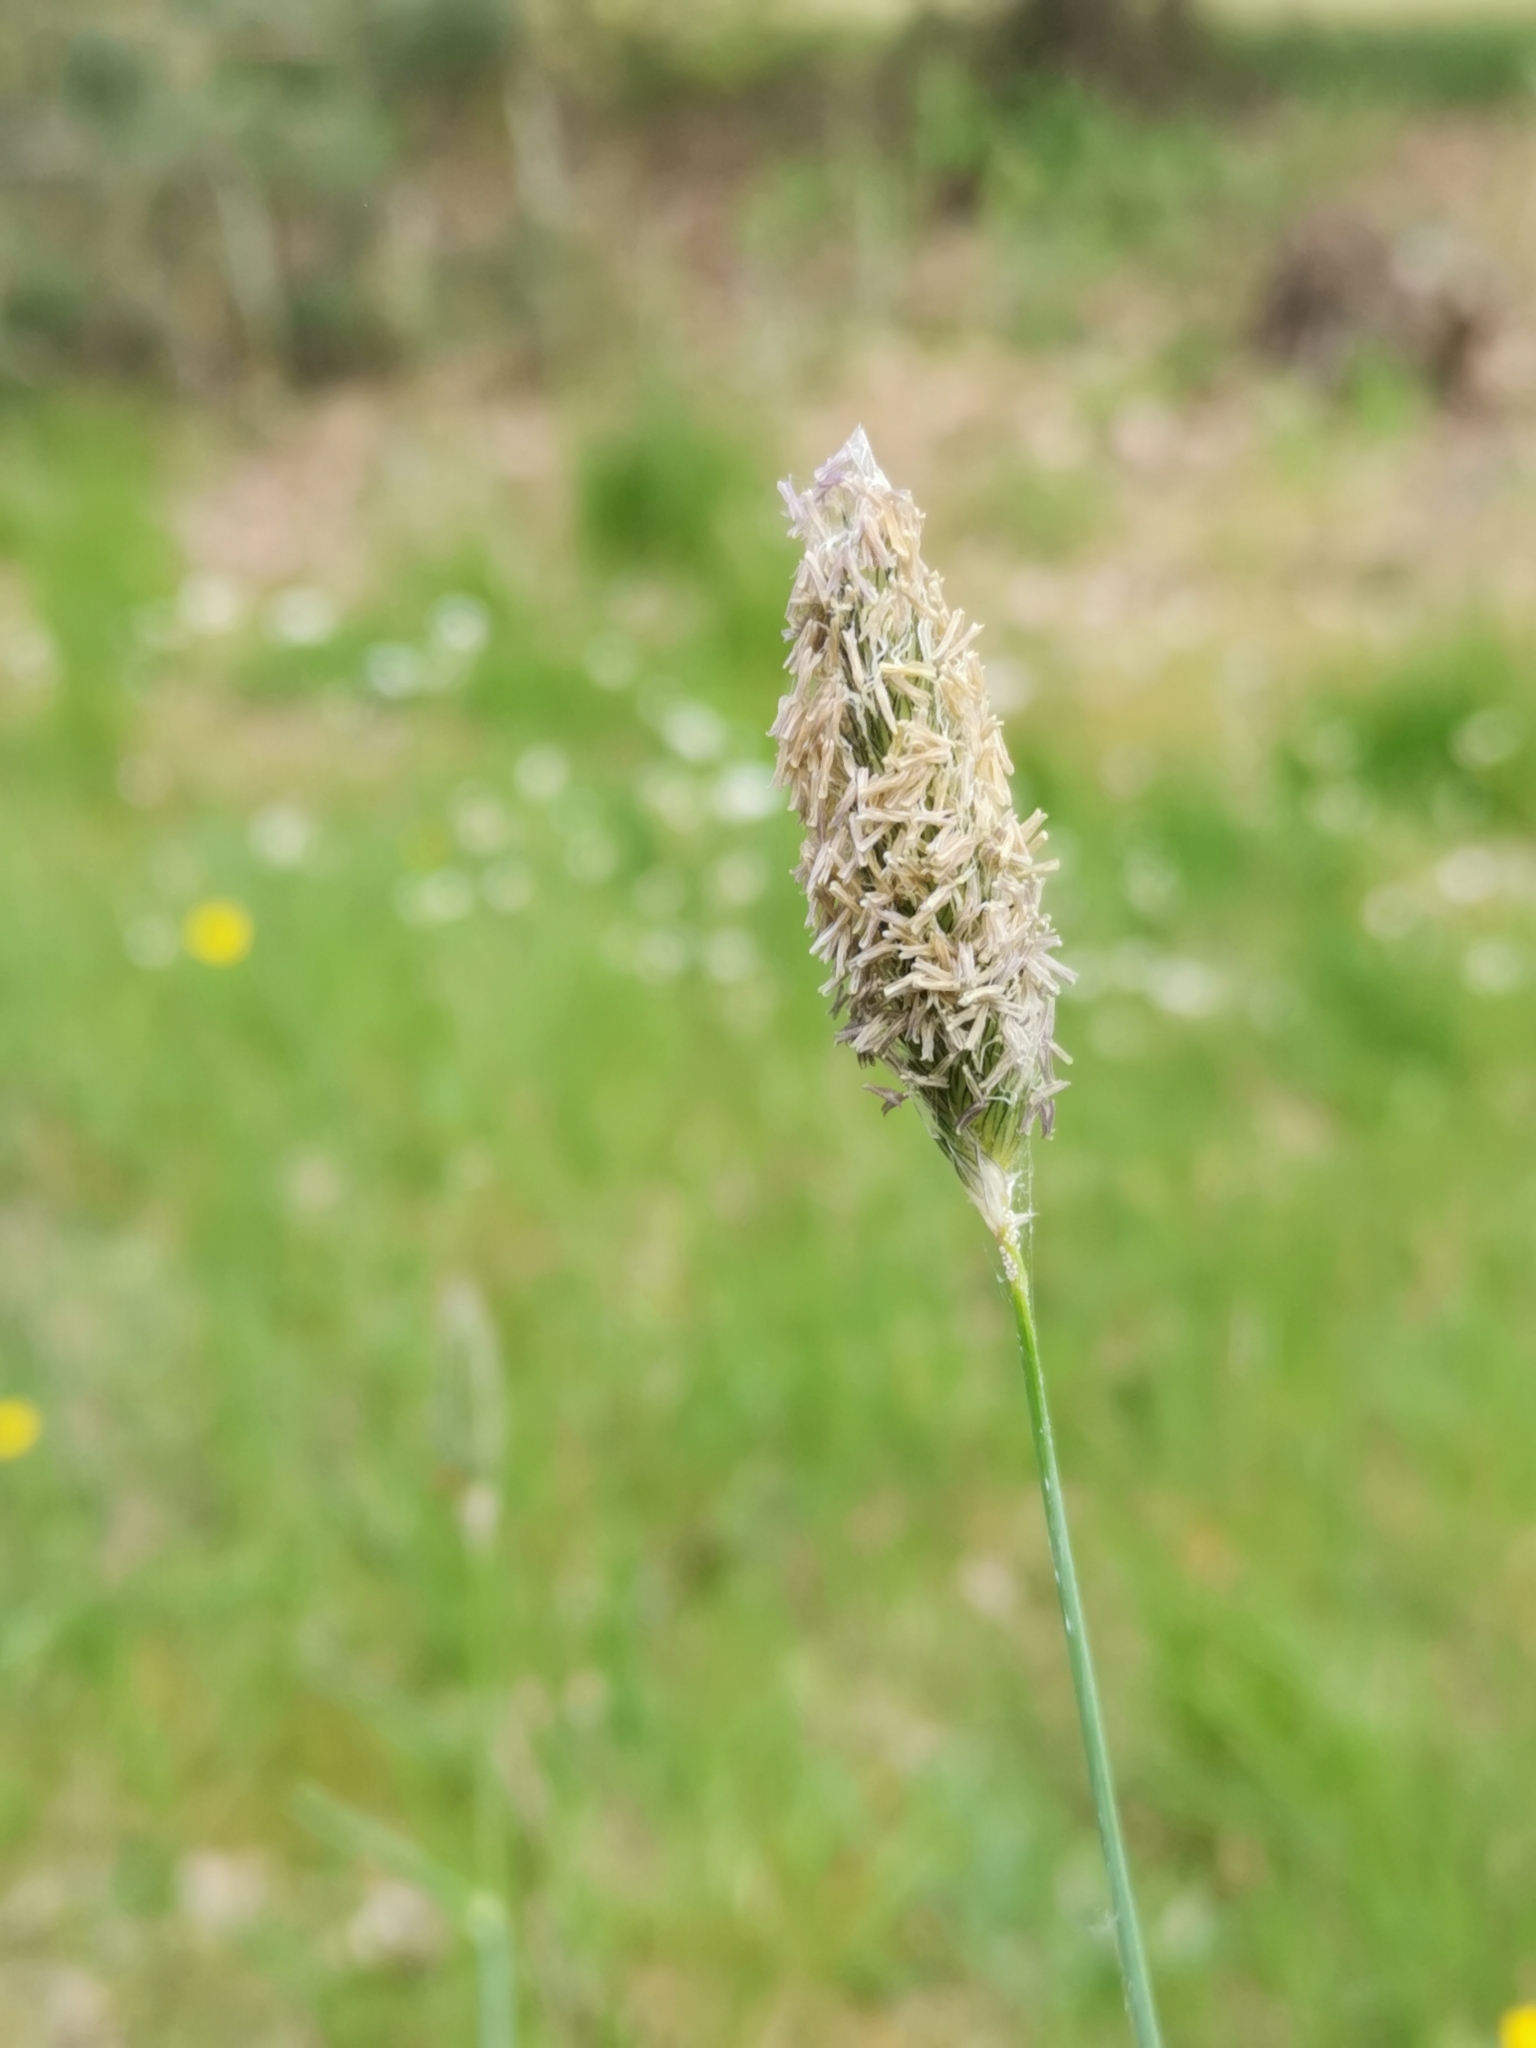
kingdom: Plantae
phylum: Tracheophyta
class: Liliopsida
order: Poales
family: Poaceae
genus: Alopecurus
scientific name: Alopecurus pratensis
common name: Meadow foxtail
